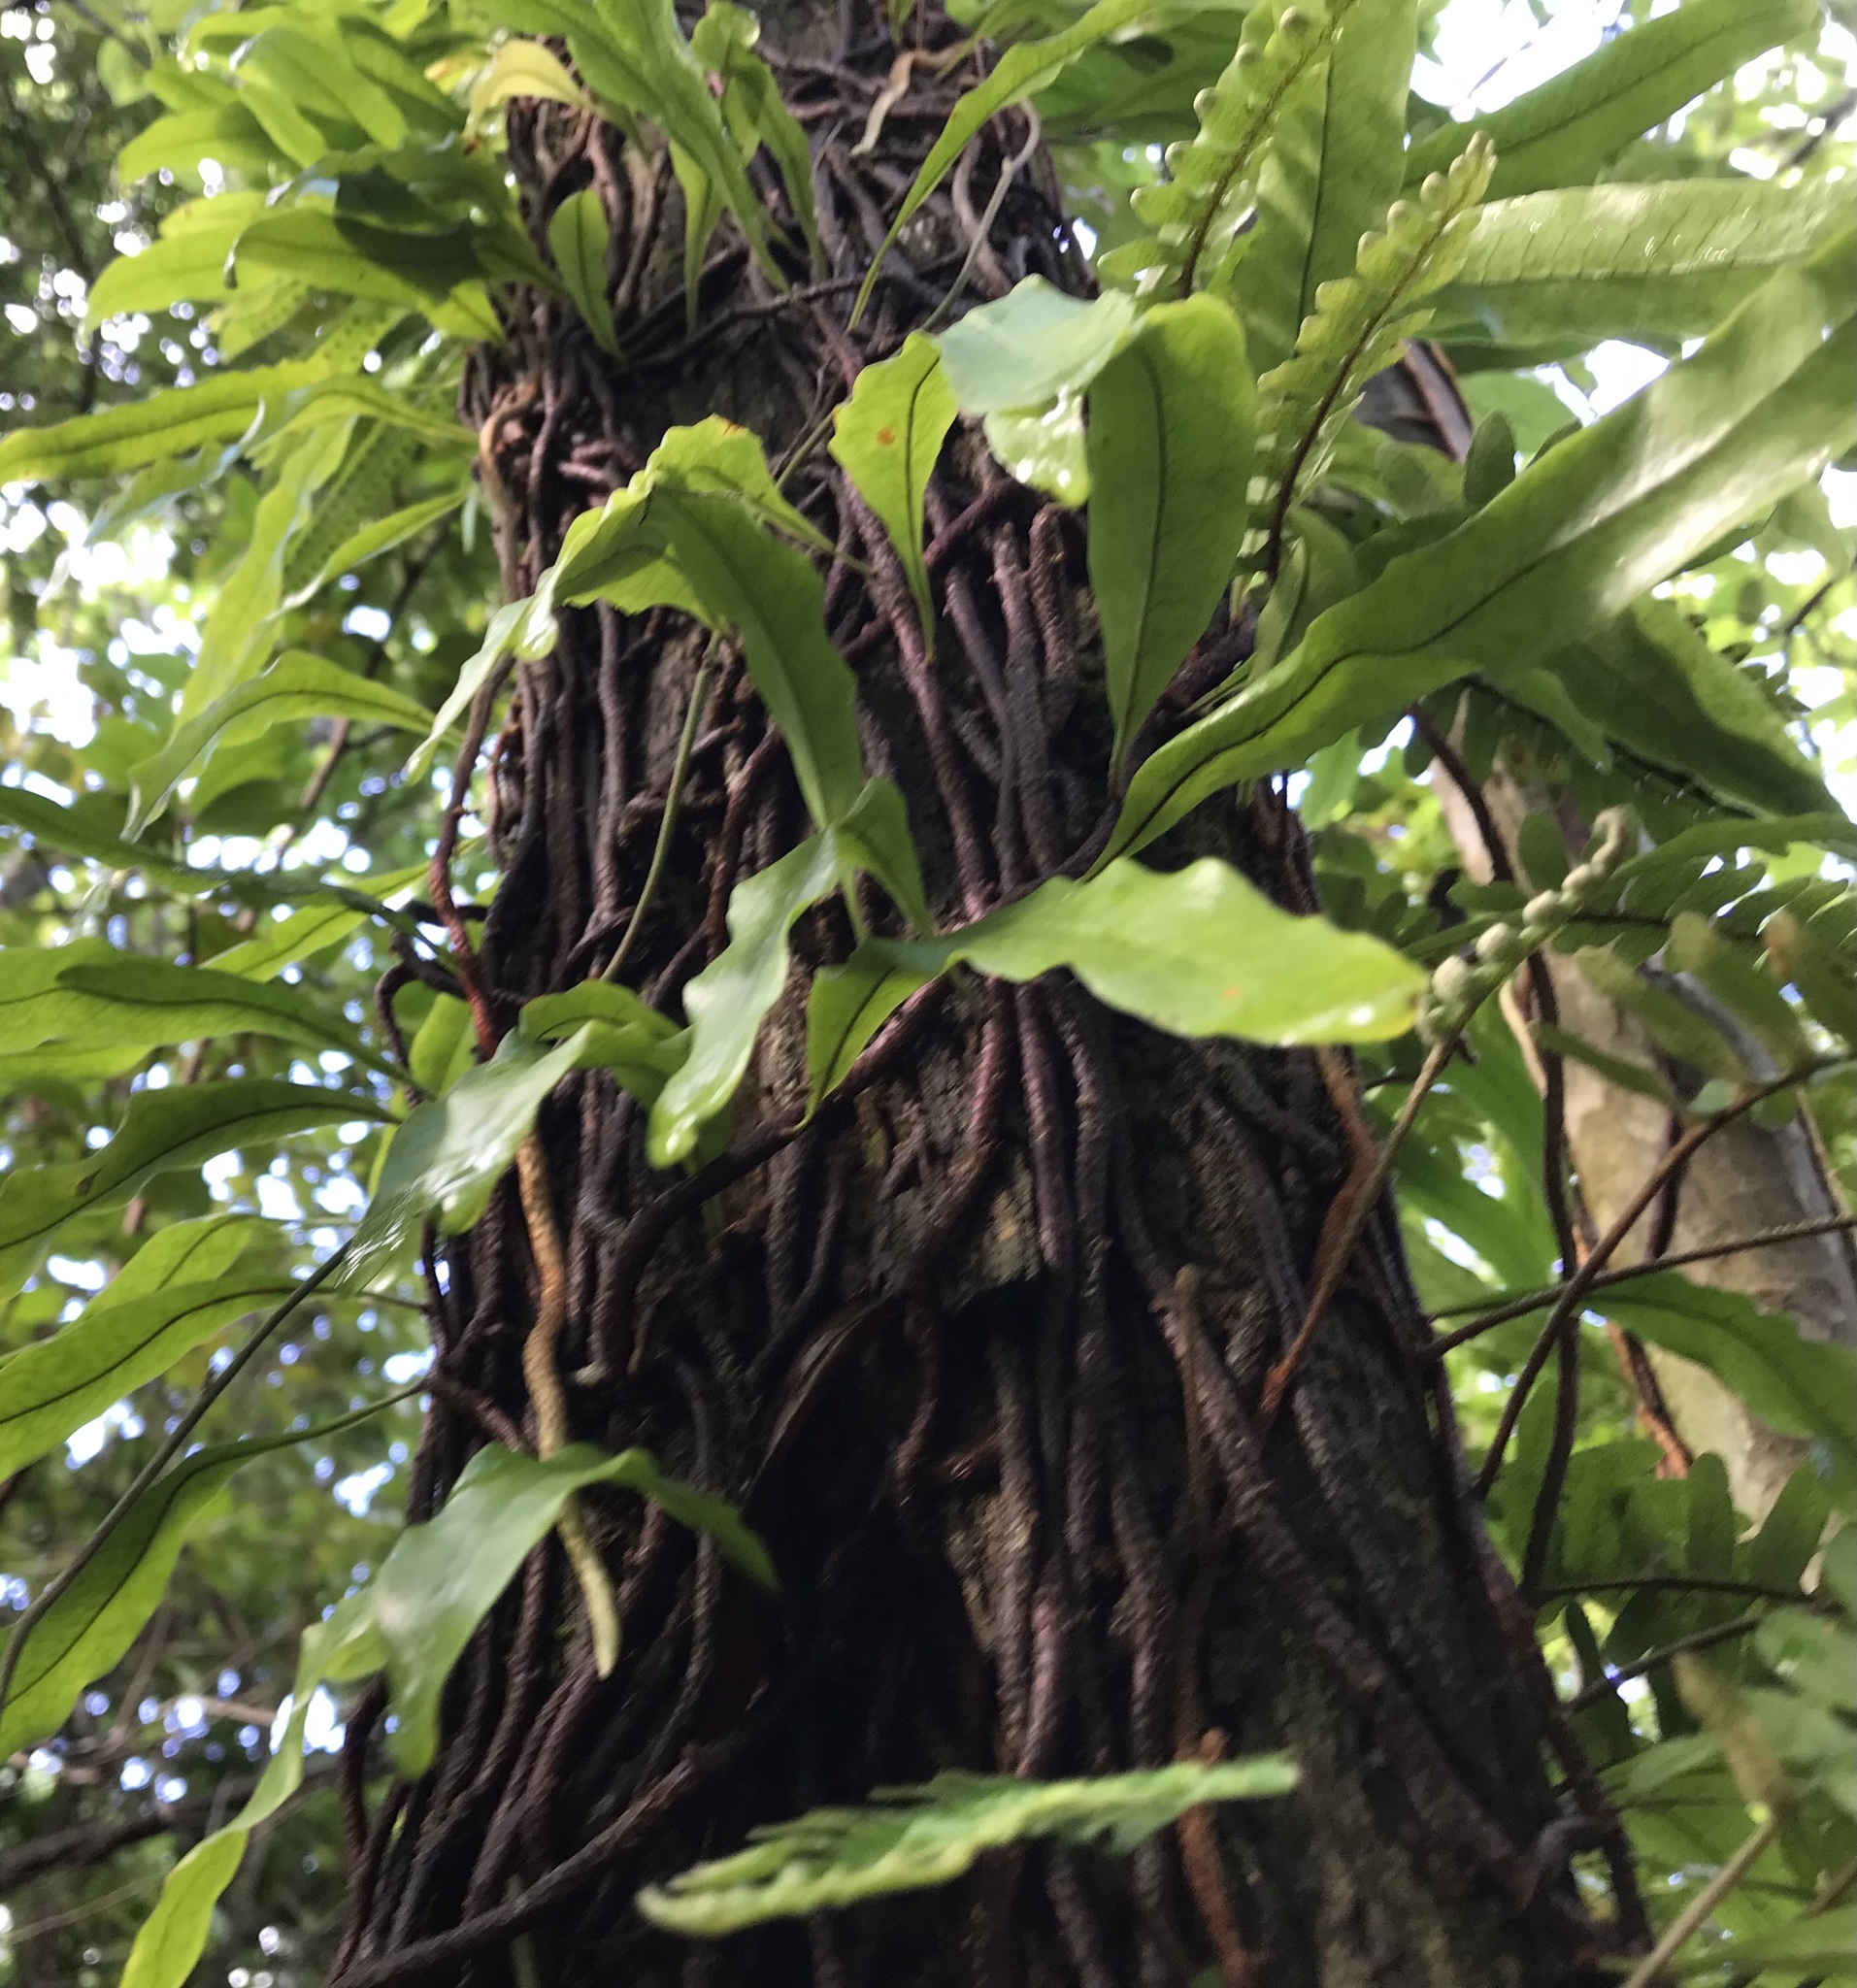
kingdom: Plantae
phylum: Tracheophyta
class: Polypodiopsida
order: Polypodiales
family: Polypodiaceae
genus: Pleopeltis
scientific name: Pleopeltis polypodioides
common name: Resurrection fern
